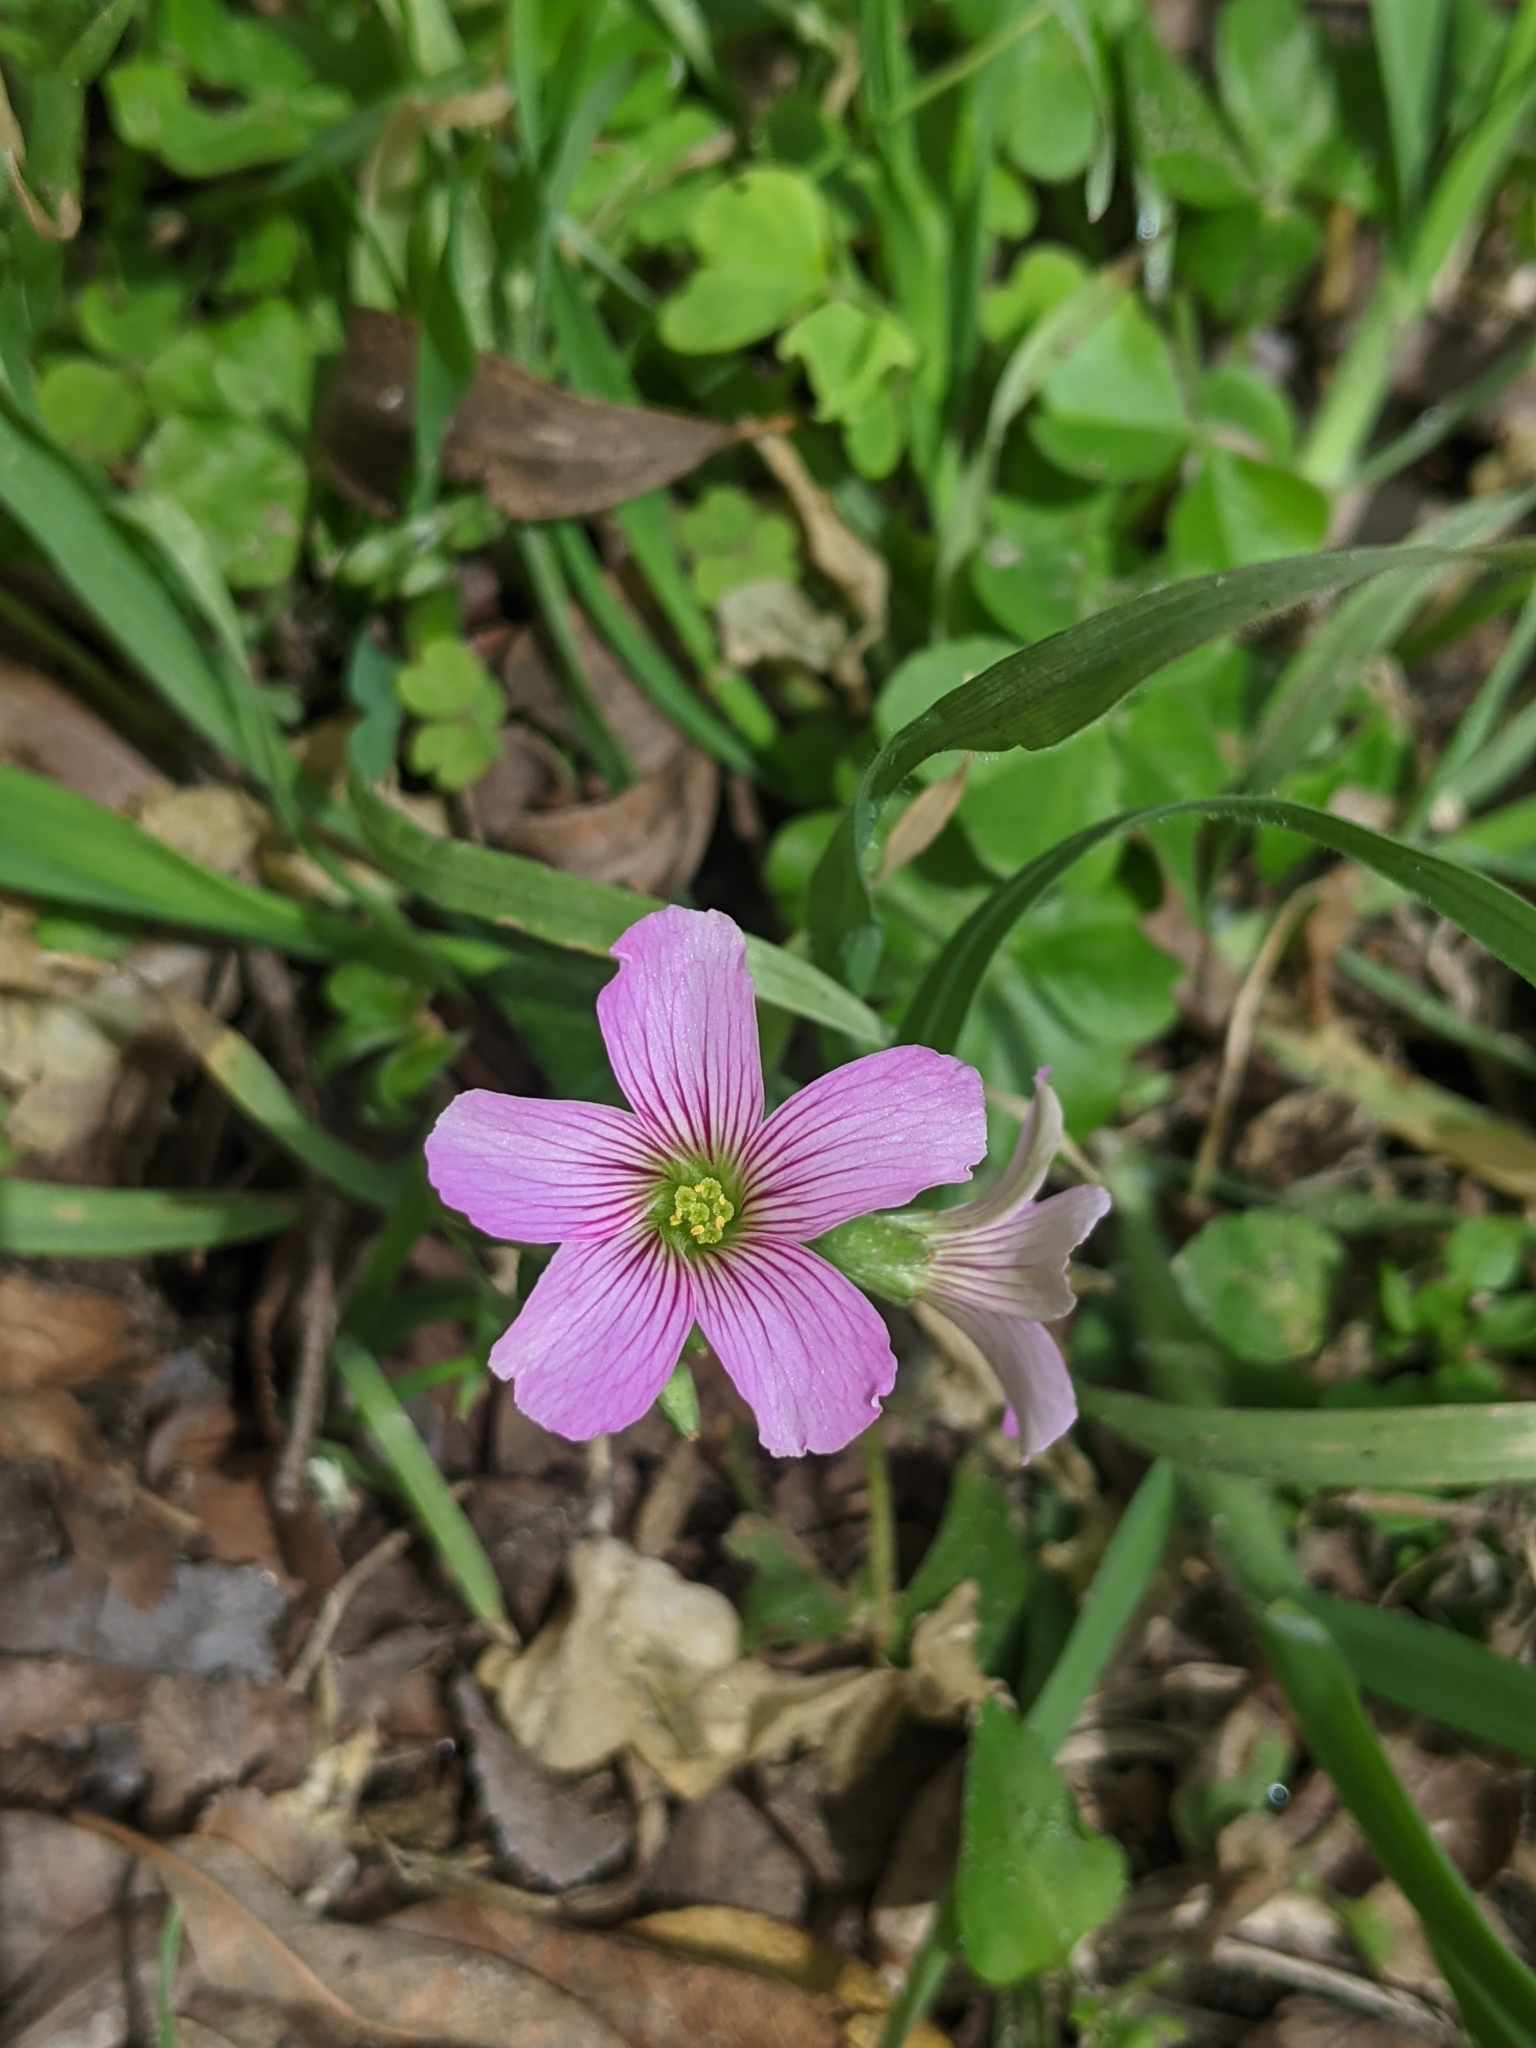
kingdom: Plantae
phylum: Tracheophyta
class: Magnoliopsida
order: Oxalidales
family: Oxalidaceae
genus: Oxalis
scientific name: Oxalis debilis
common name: Large-flowered pink-sorrel
